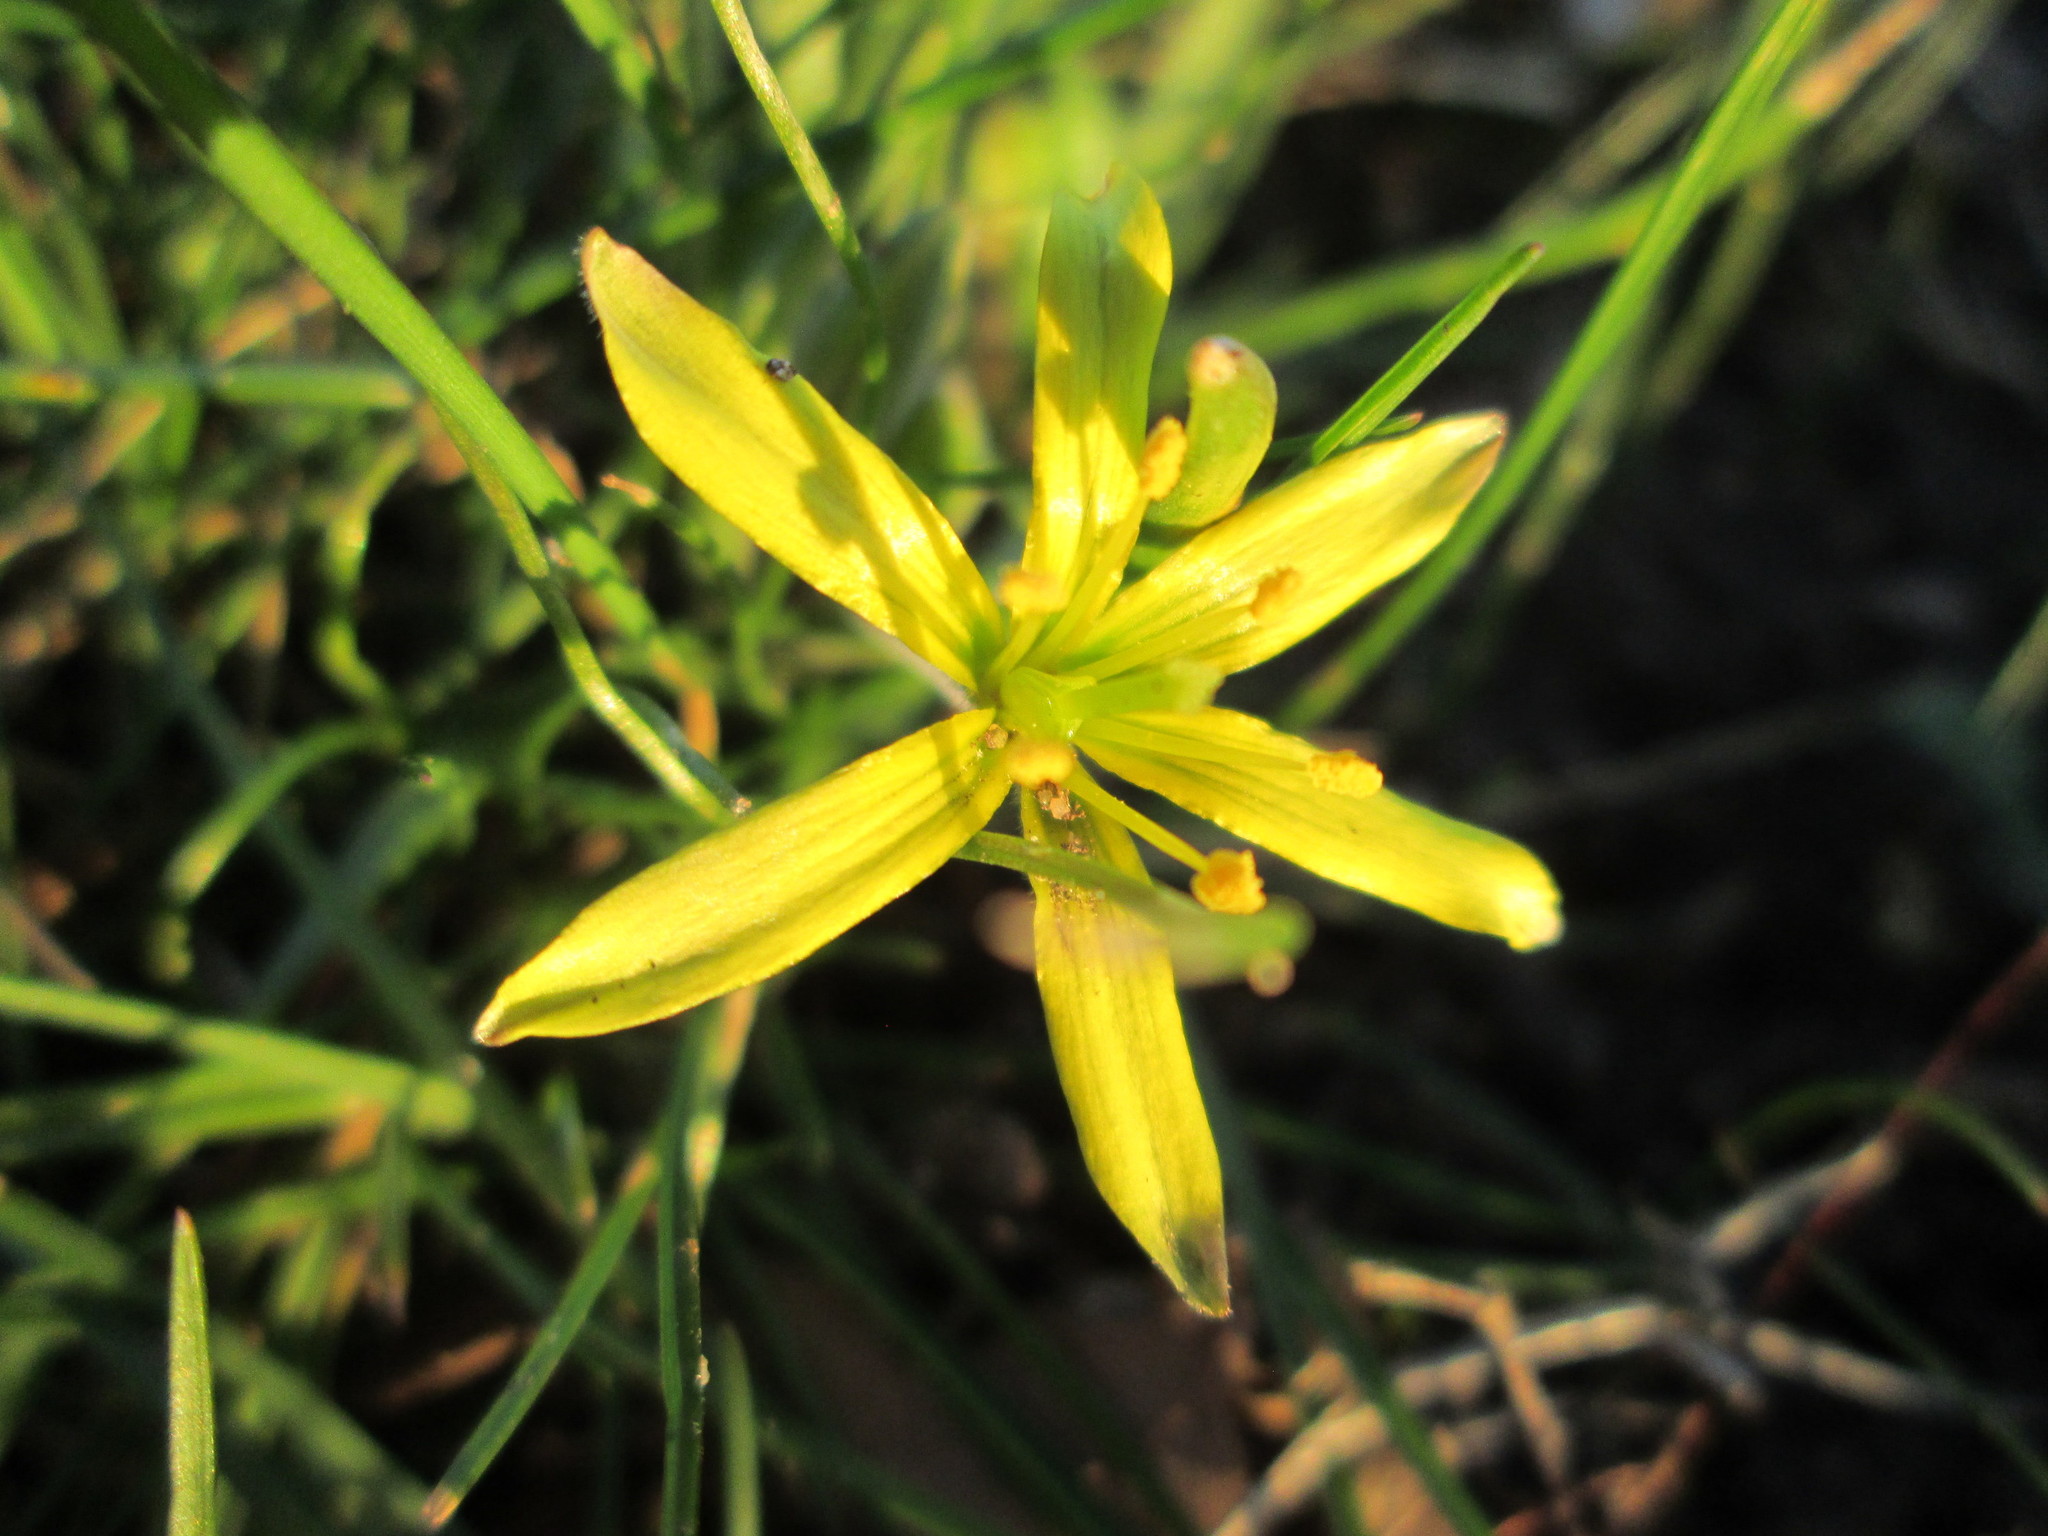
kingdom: Plantae
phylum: Tracheophyta
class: Liliopsida
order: Liliales
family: Liliaceae
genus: Gagea
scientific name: Gagea villosa
